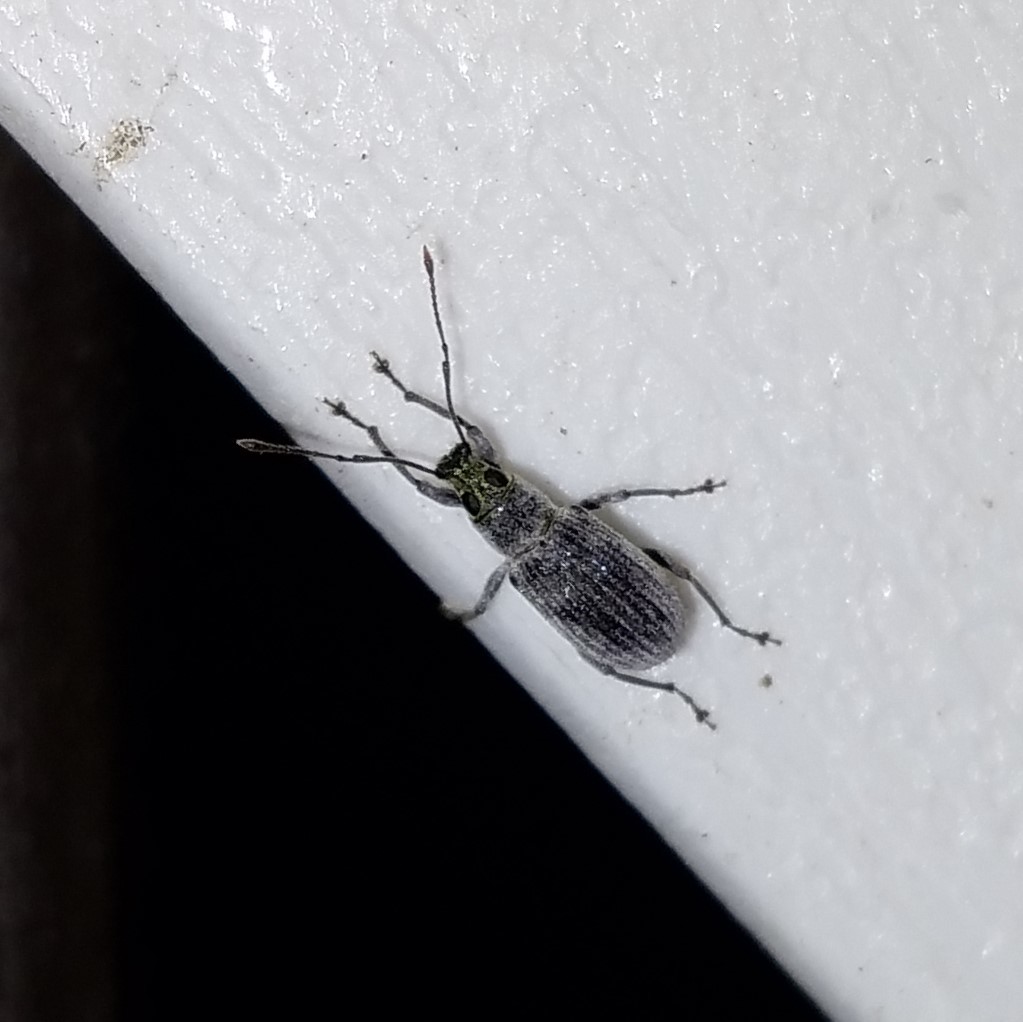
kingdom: Animalia
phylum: Arthropoda
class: Insecta
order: Coleoptera
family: Curculionidae
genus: Cyrtepistomus
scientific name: Cyrtepistomus castaneus
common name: Weevil
